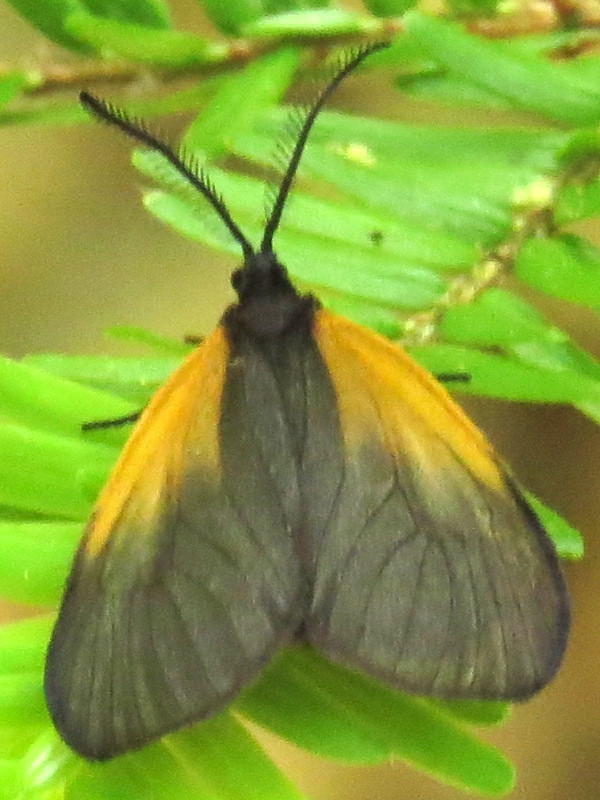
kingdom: Animalia
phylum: Arthropoda
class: Insecta
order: Lepidoptera
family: Zygaenidae
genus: Malthaca
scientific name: Malthaca dimidiata
